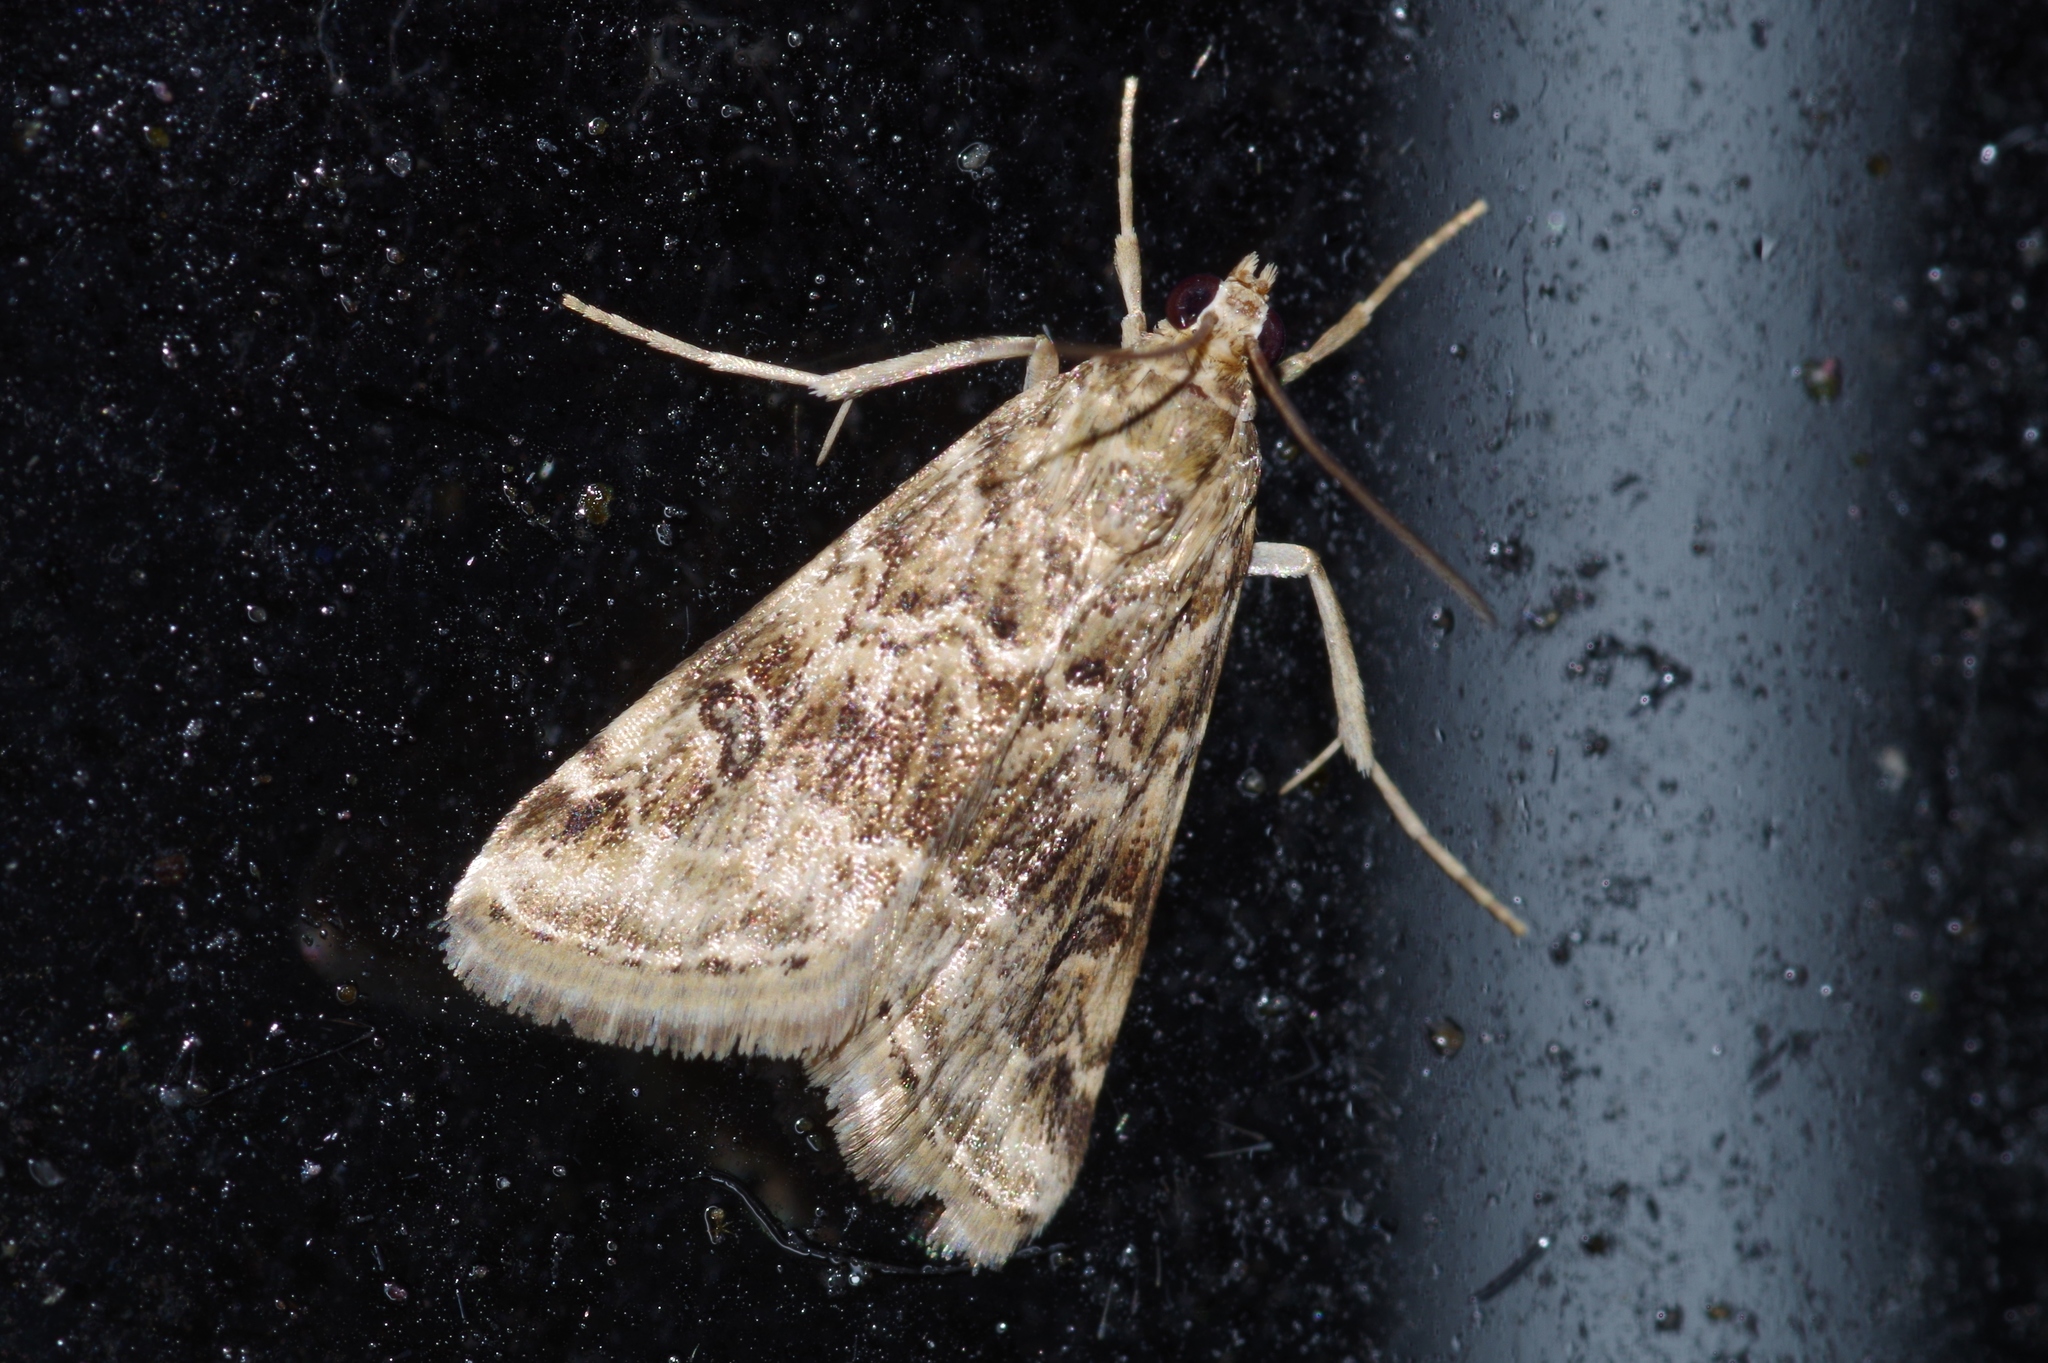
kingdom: Animalia
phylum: Arthropoda
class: Insecta
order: Lepidoptera
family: Crambidae
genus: Hellula
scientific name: Hellula undalis
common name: Cabbage webworm
